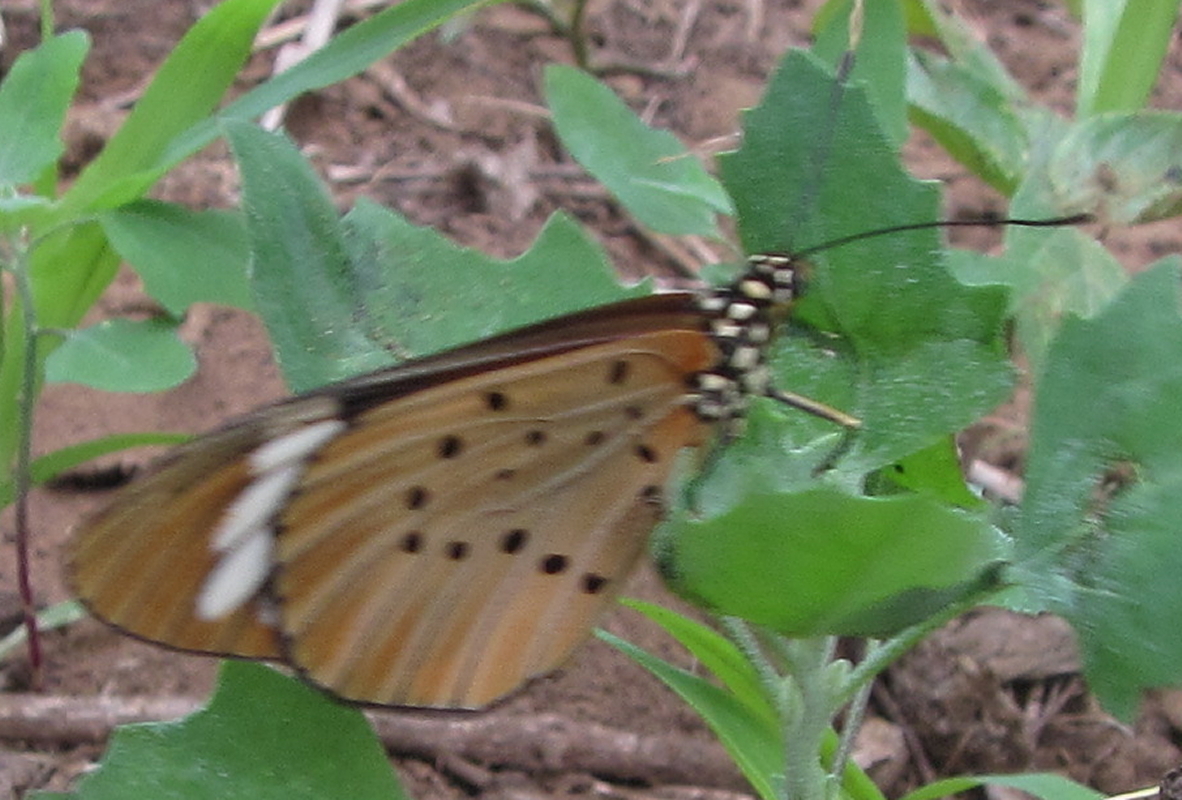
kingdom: Animalia
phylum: Arthropoda
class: Insecta
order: Lepidoptera
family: Nymphalidae
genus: Acraea
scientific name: Acraea Telchinia encedon
